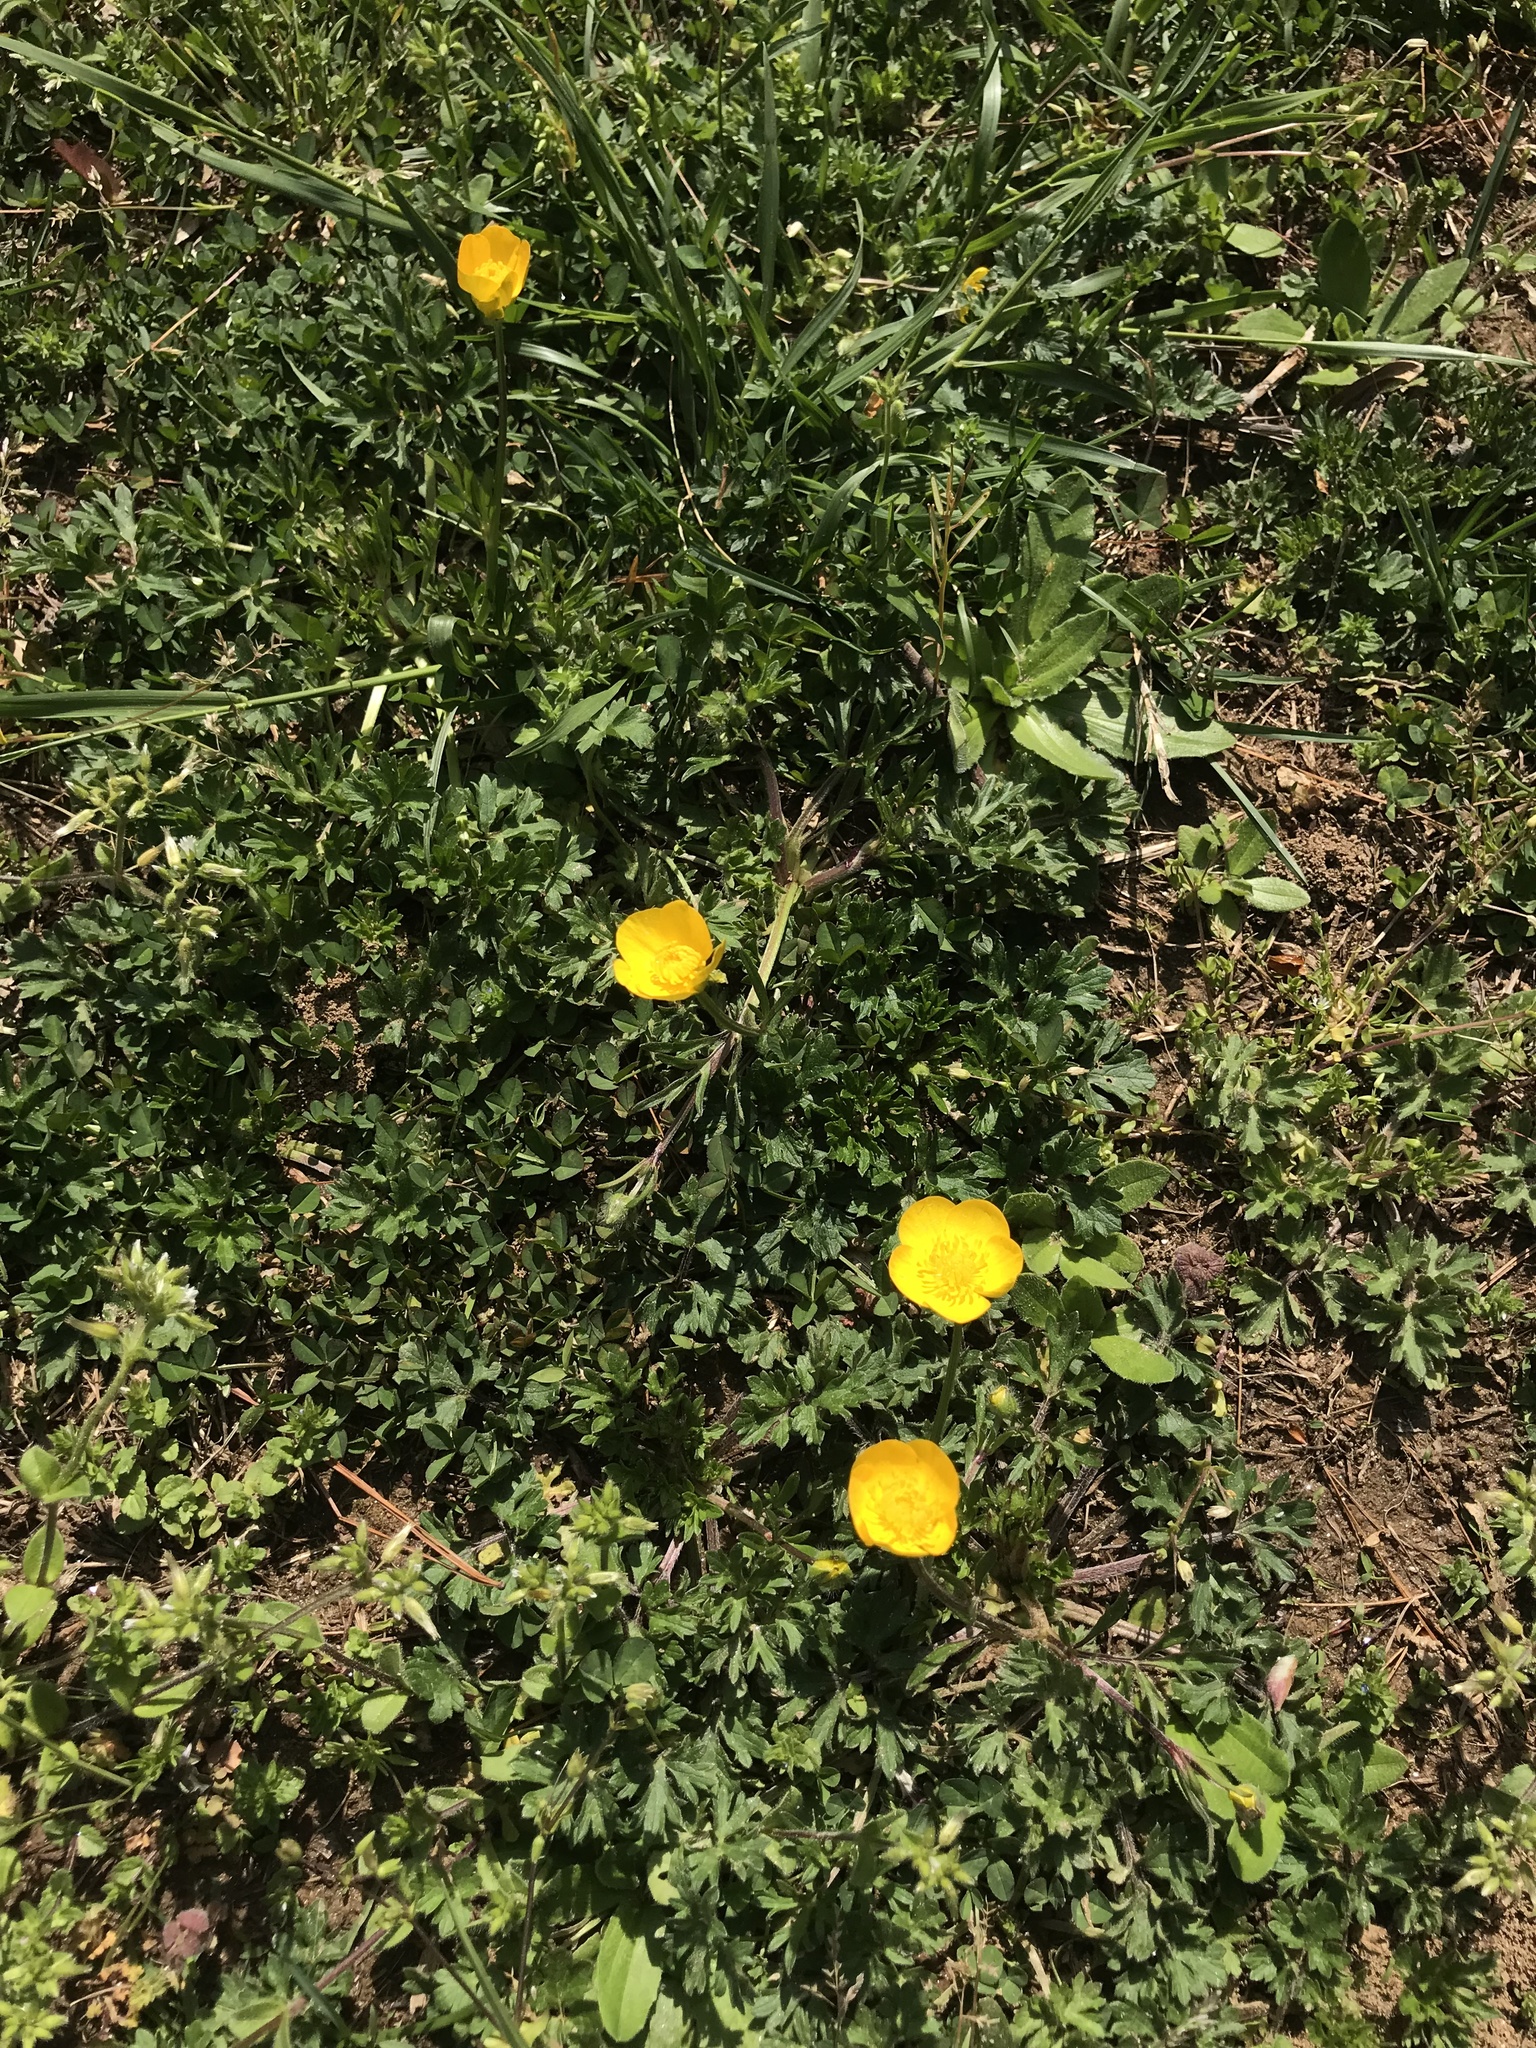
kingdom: Plantae
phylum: Tracheophyta
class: Magnoliopsida
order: Ranunculales
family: Ranunculaceae
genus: Ranunculus
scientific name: Ranunculus bulbosus
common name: Bulbous buttercup
